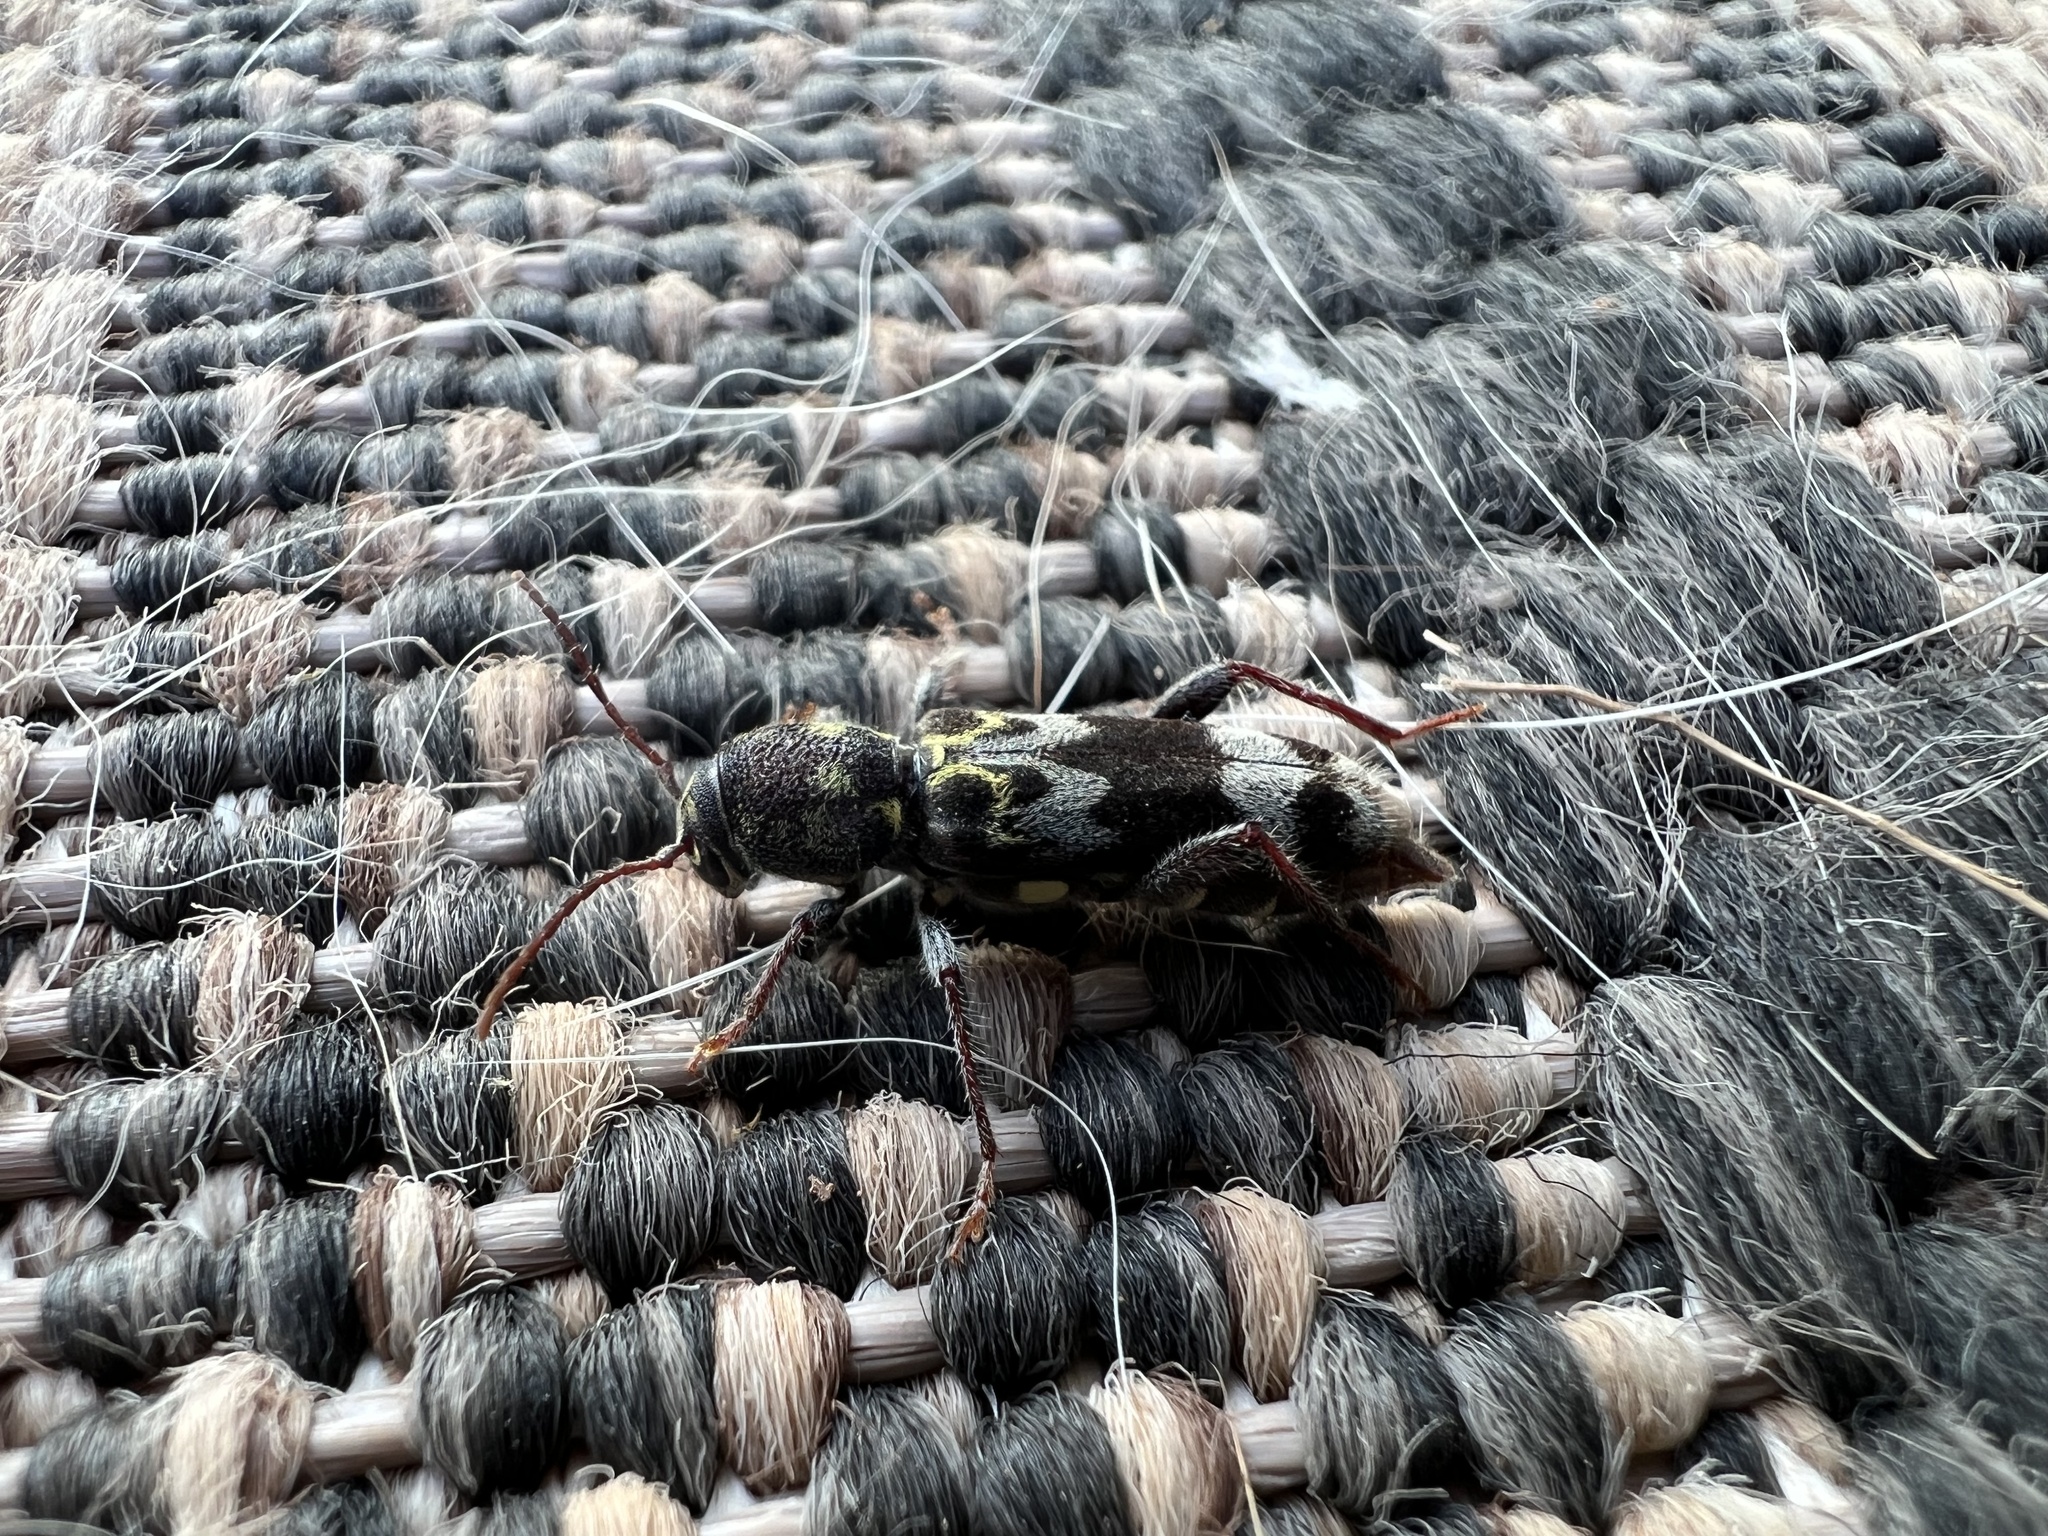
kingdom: Animalia
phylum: Arthropoda
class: Insecta
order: Coleoptera
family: Cerambycidae
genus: Xylotrechus
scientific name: Xylotrechus colonus
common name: Long-horned beetle
